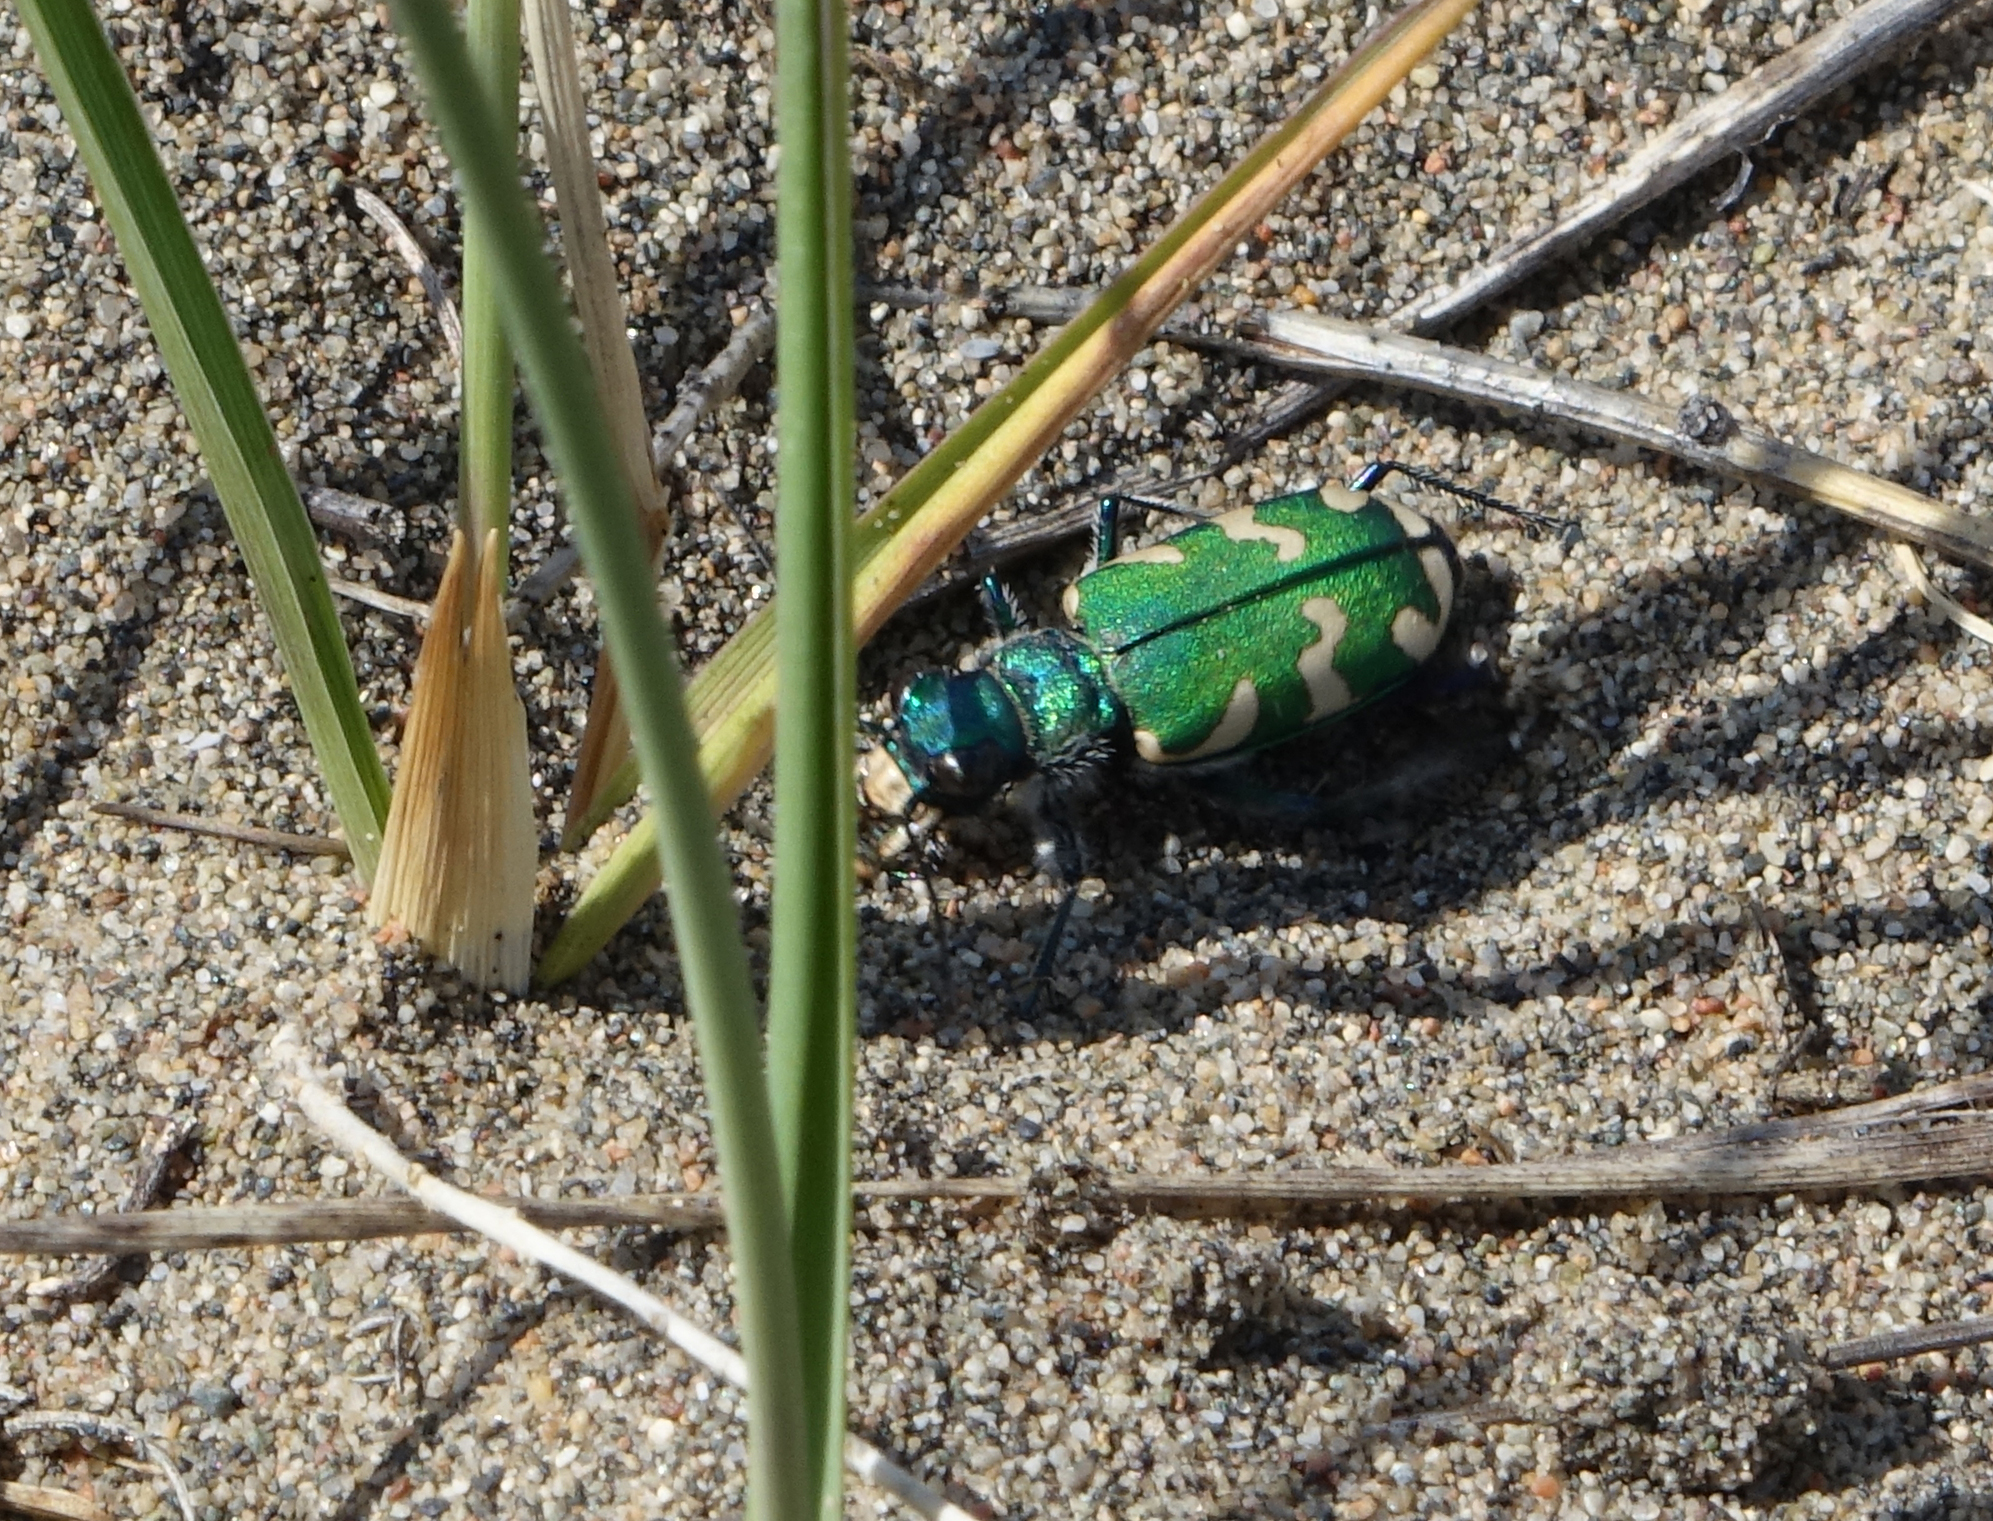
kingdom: Animalia
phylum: Arthropoda
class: Insecta
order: Coleoptera
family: Carabidae
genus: Cicindela
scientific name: Cicindela coerulea
